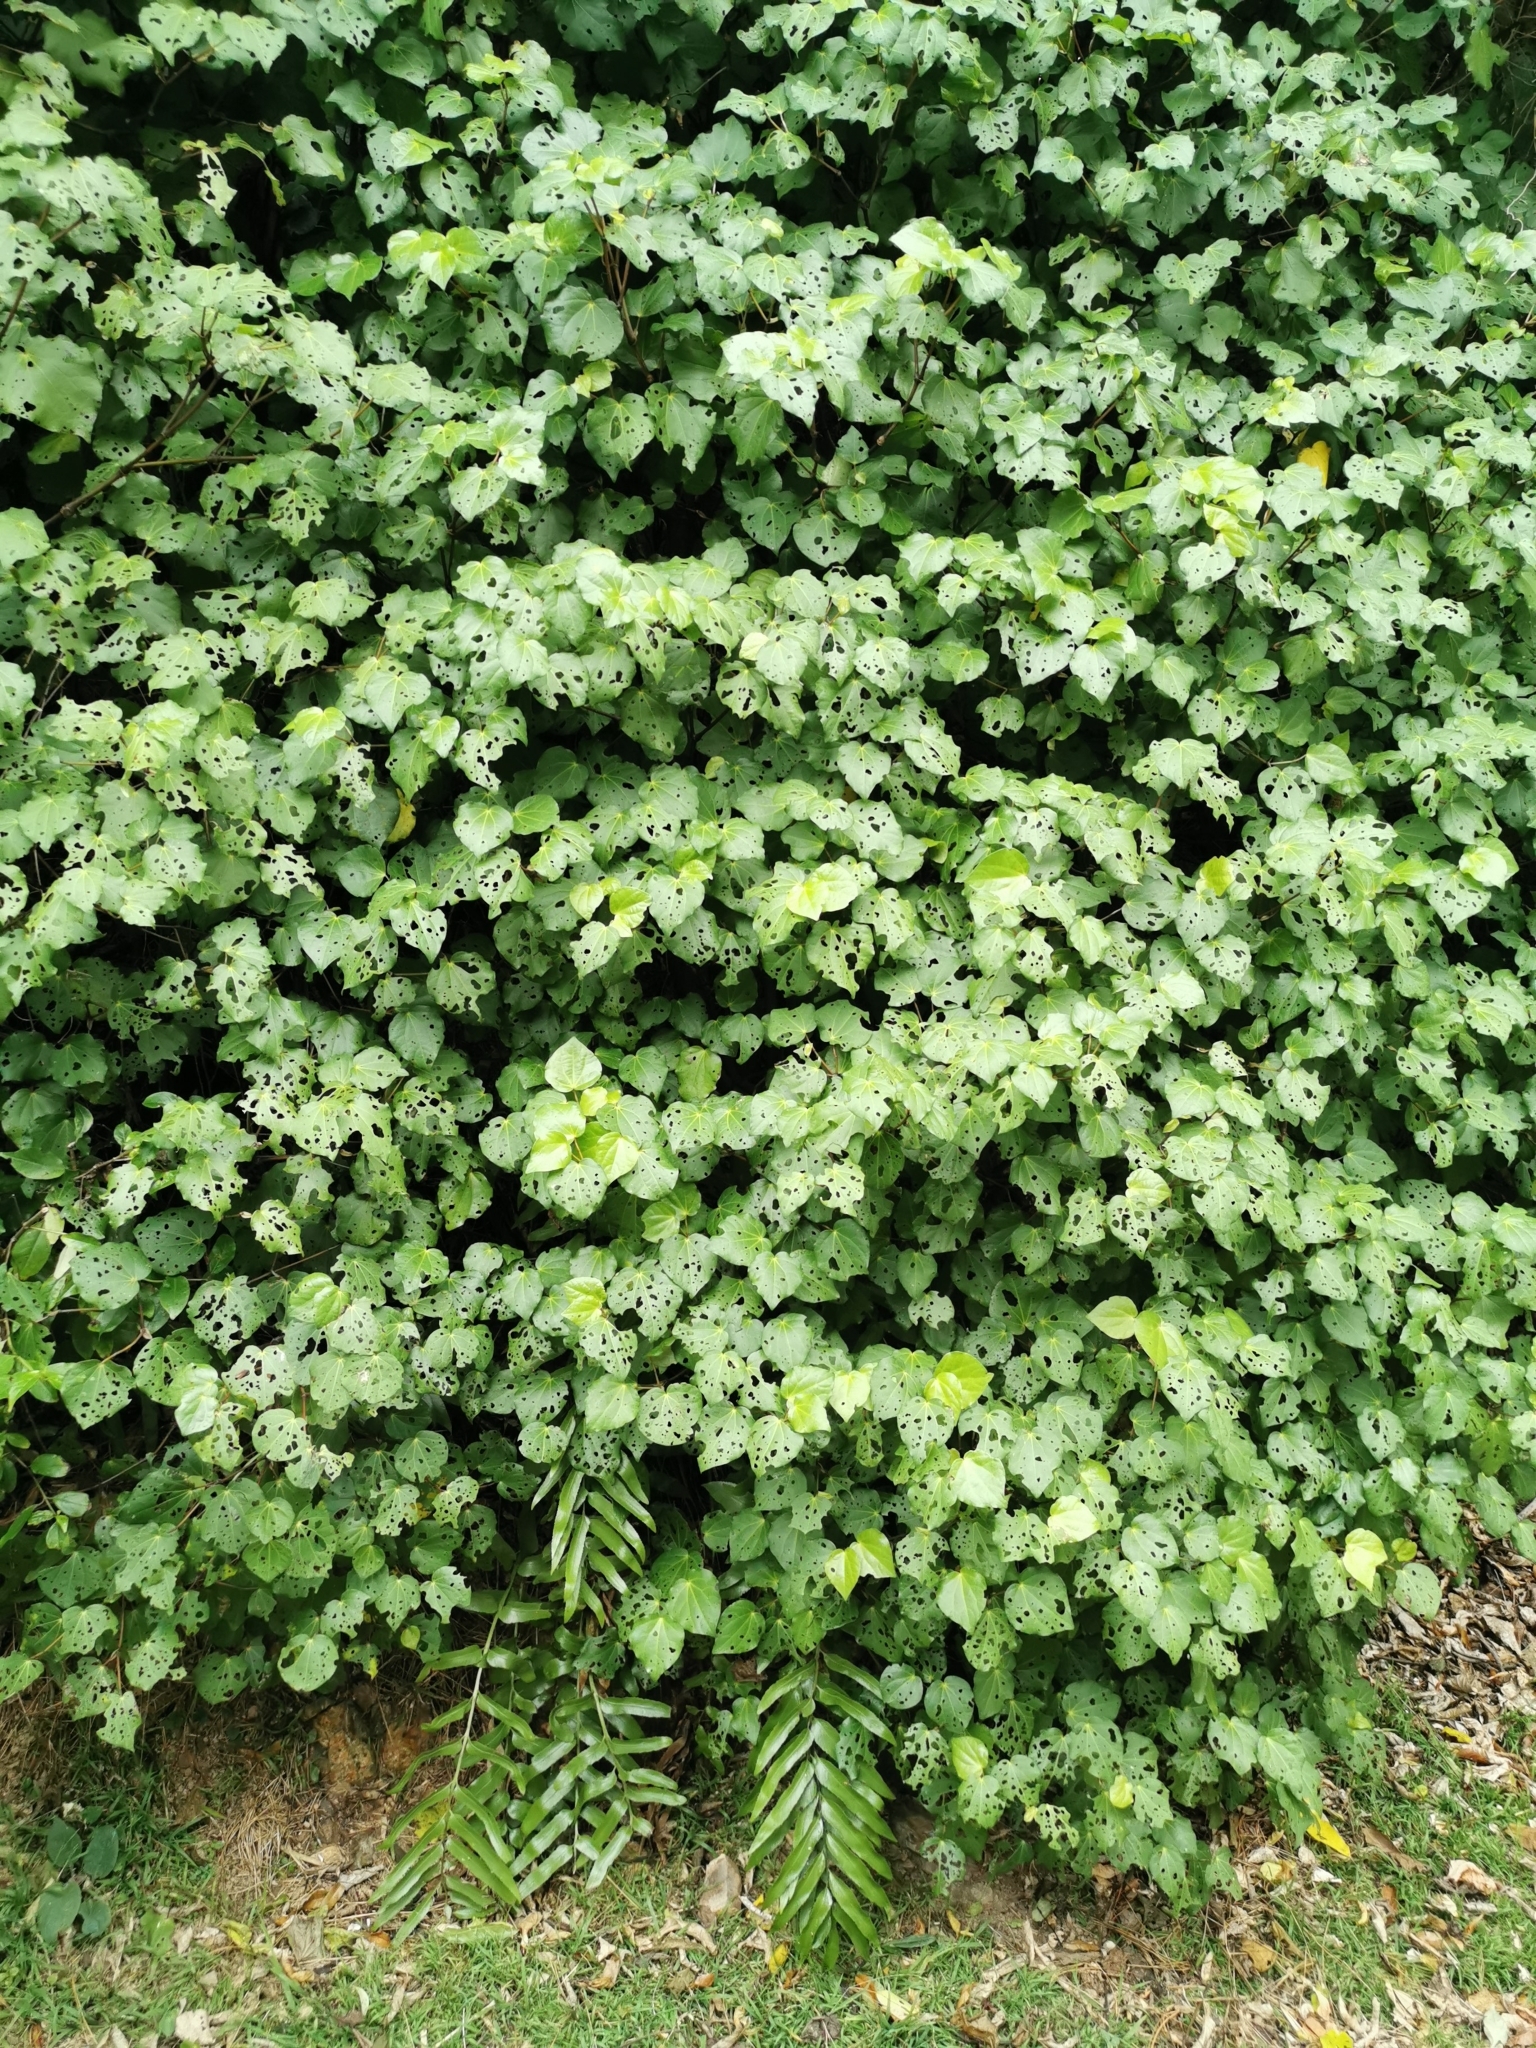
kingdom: Plantae
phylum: Tracheophyta
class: Magnoliopsida
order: Piperales
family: Piperaceae
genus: Macropiper
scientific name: Macropiper excelsum
